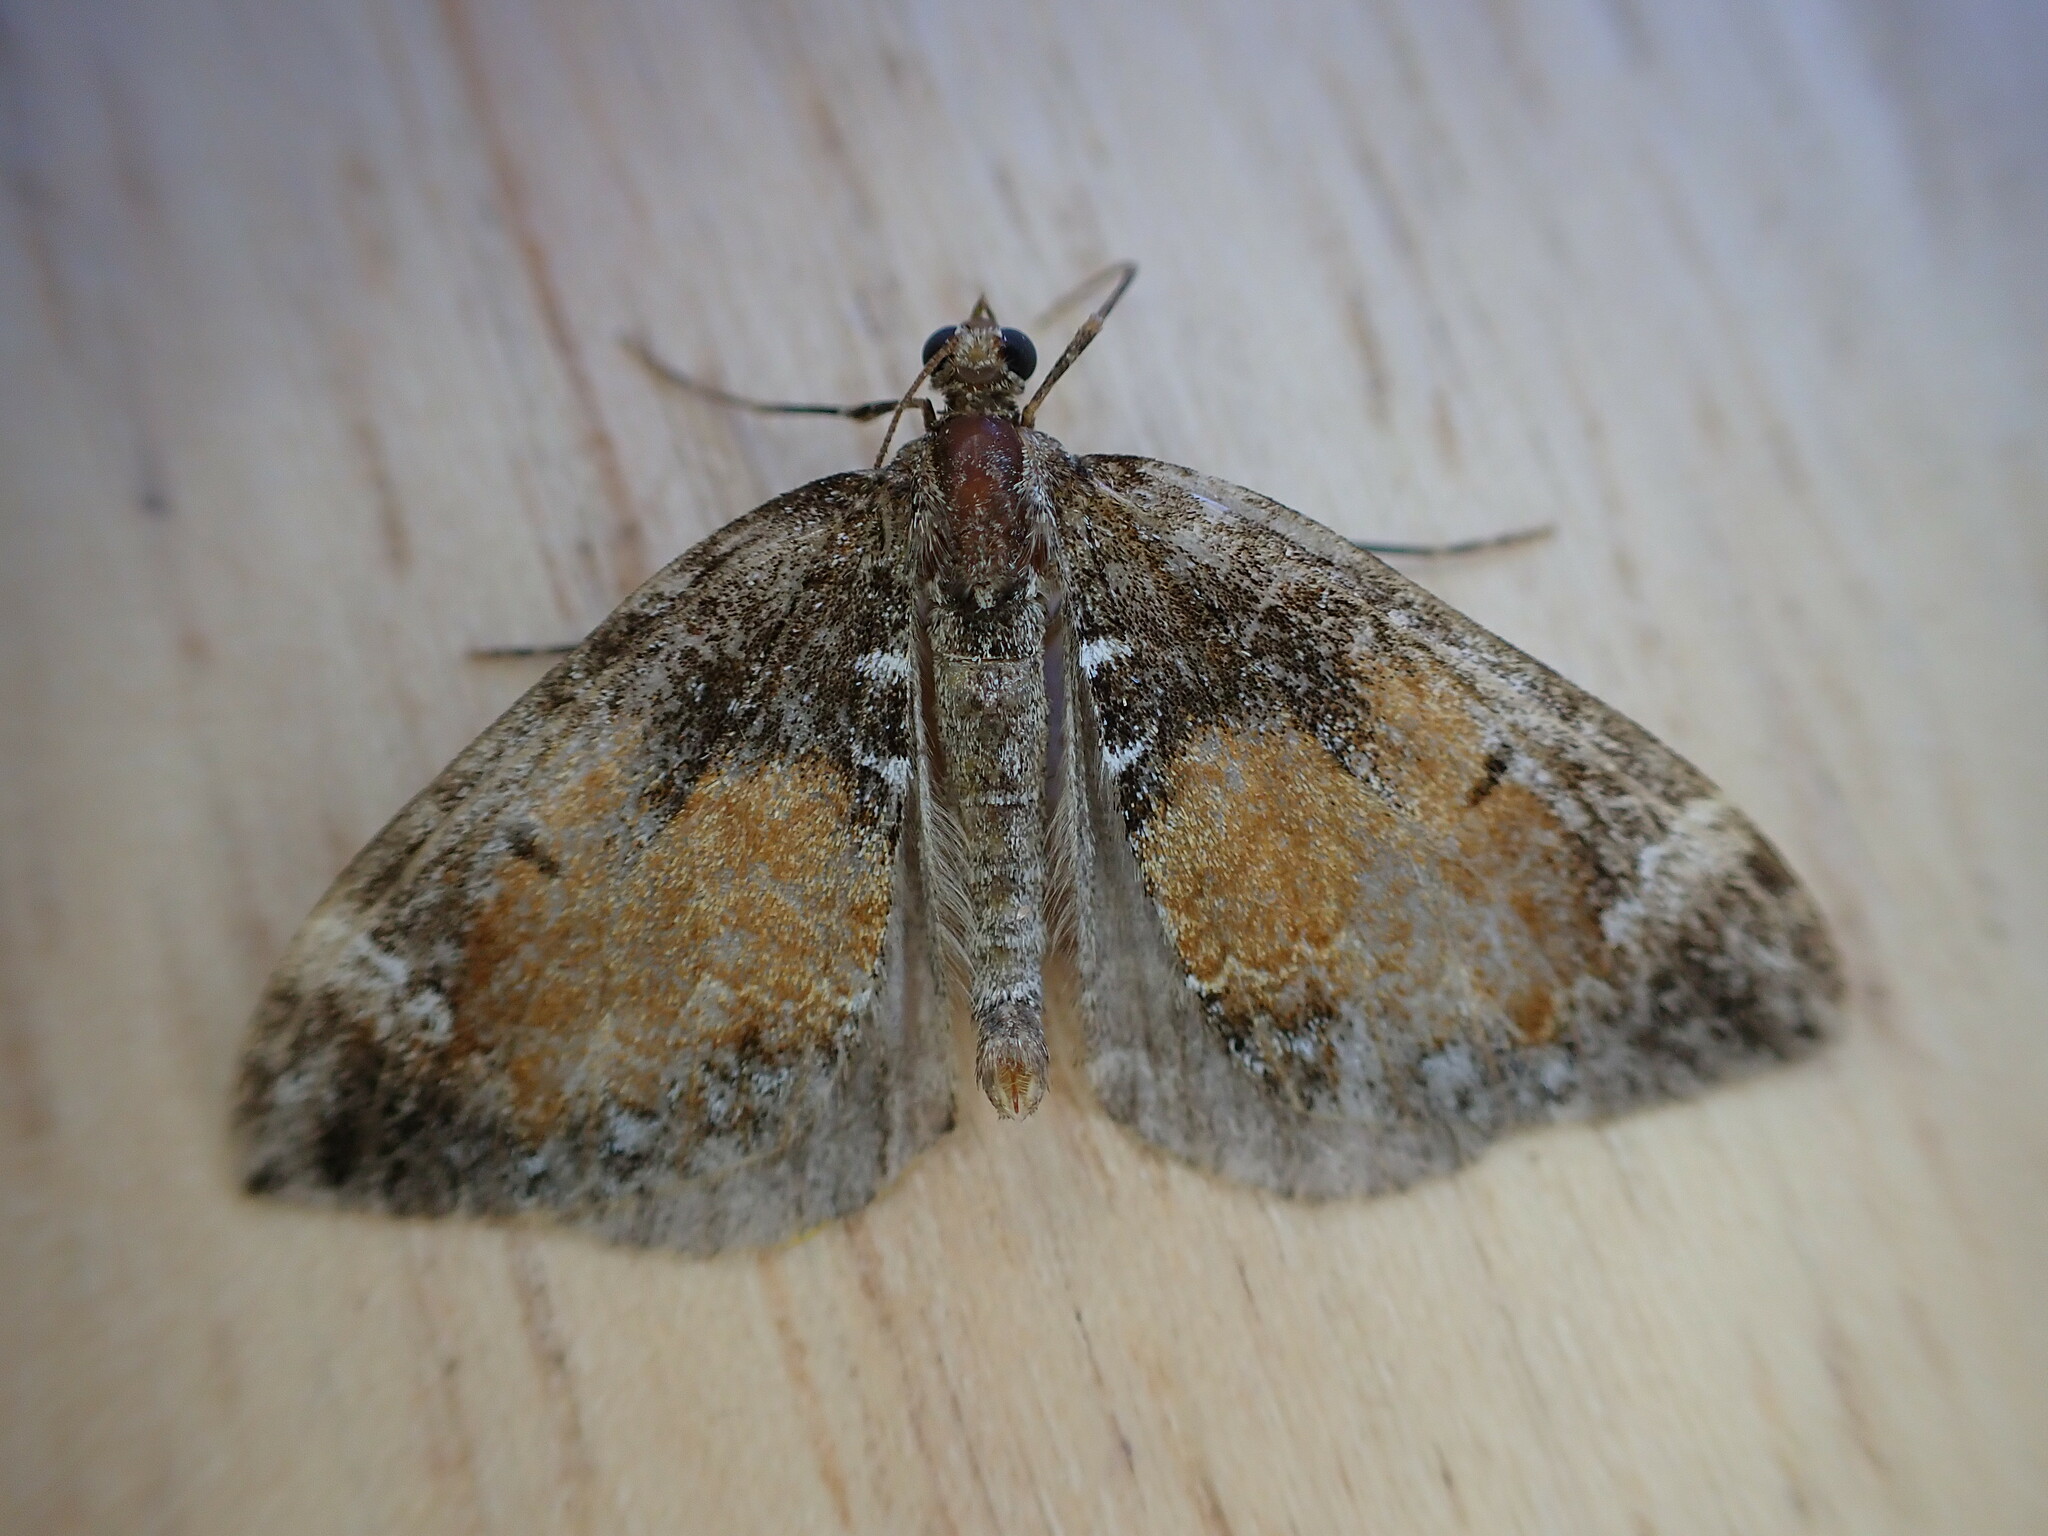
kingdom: Animalia
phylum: Arthropoda
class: Insecta
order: Lepidoptera
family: Geometridae
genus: Dysstroma
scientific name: Dysstroma truncata
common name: Common marbled carpet
